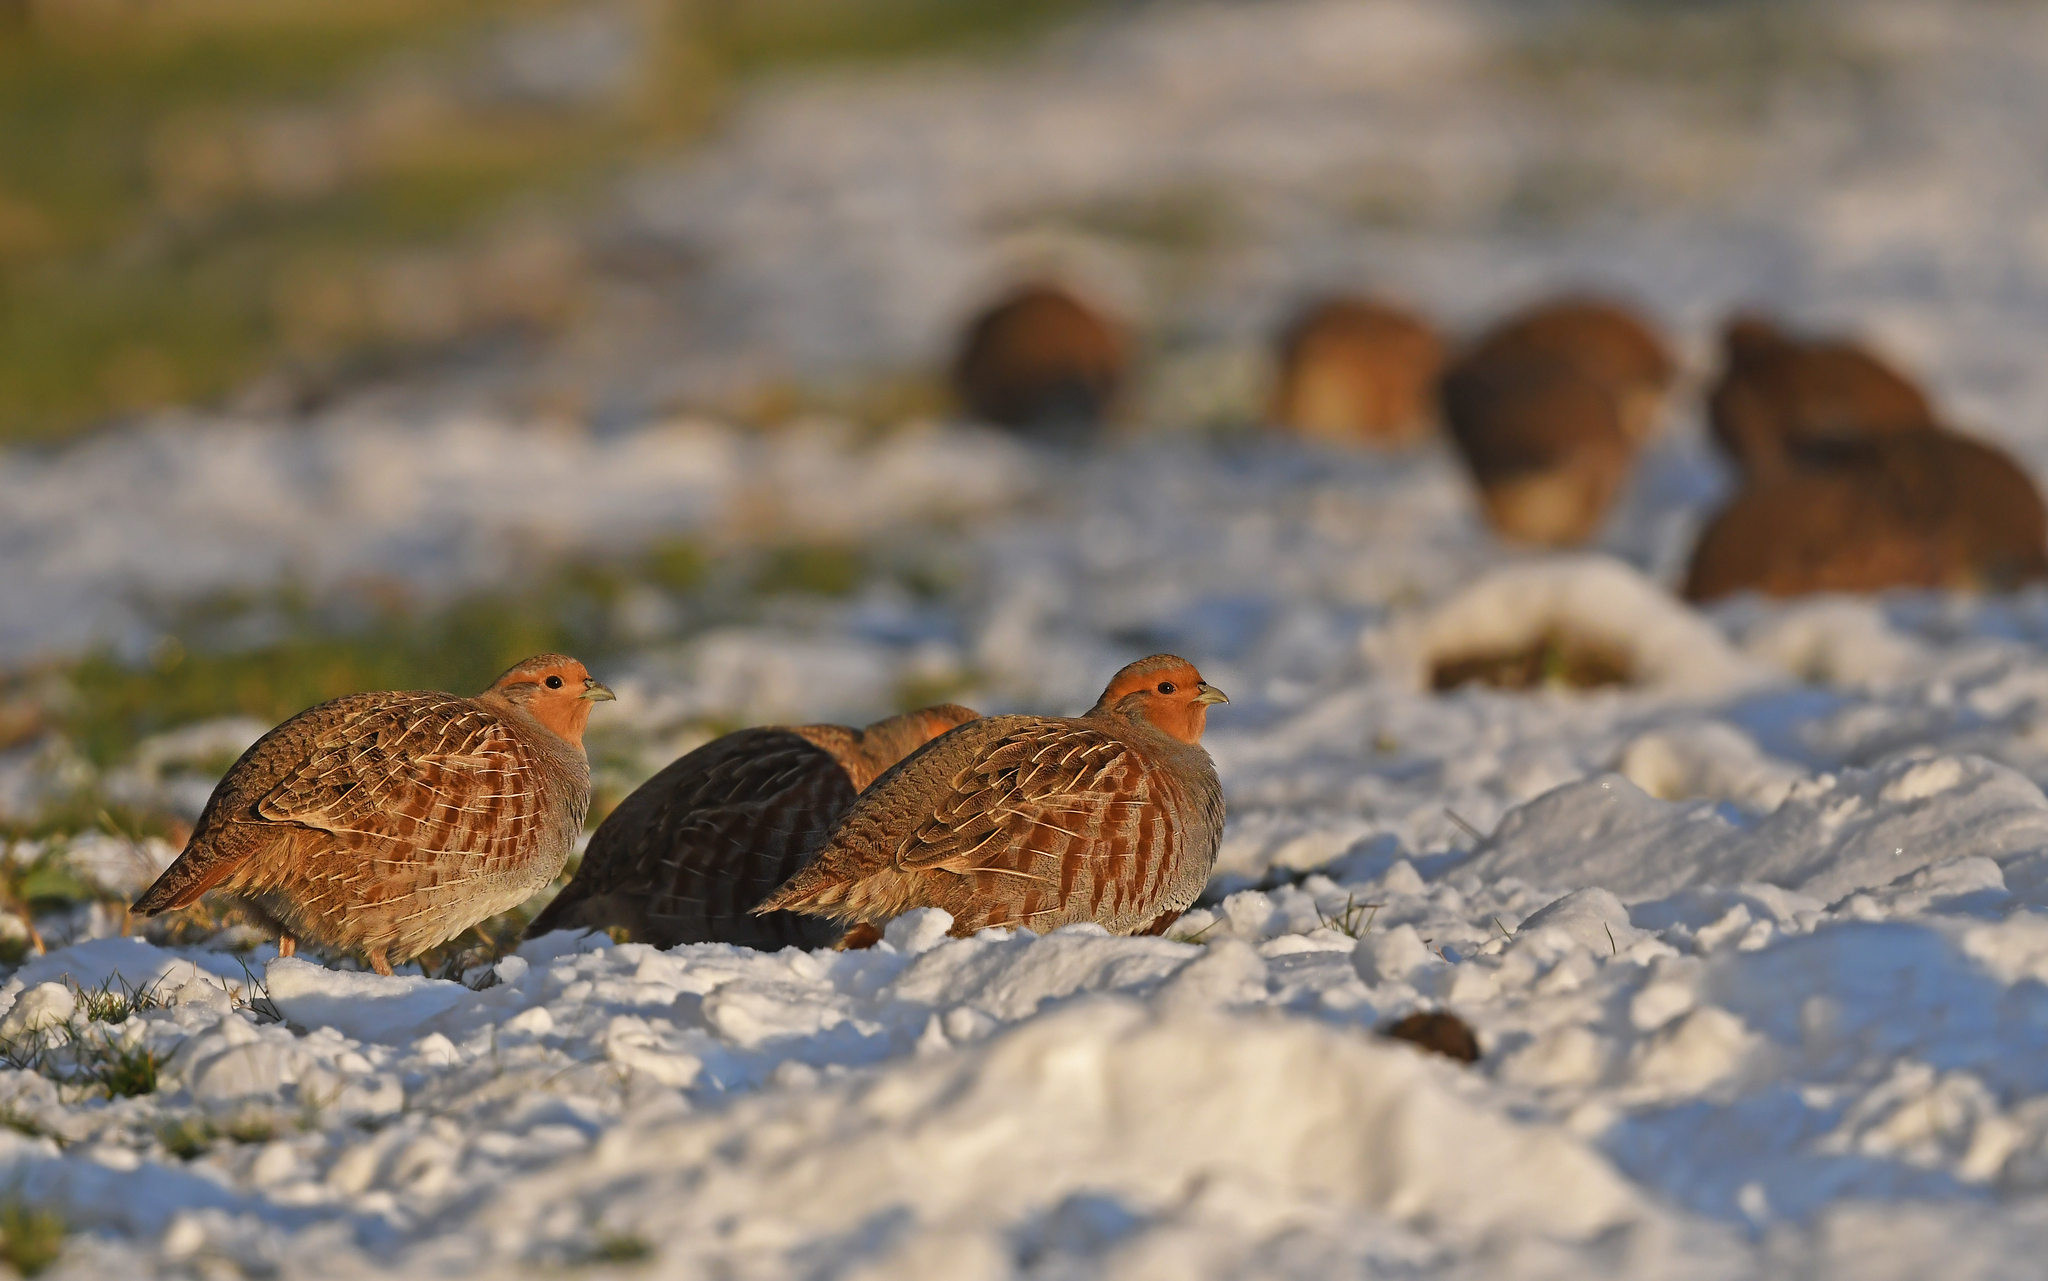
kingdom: Animalia
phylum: Chordata
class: Aves
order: Galliformes
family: Phasianidae
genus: Perdix
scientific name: Perdix perdix
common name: Grey partridge
